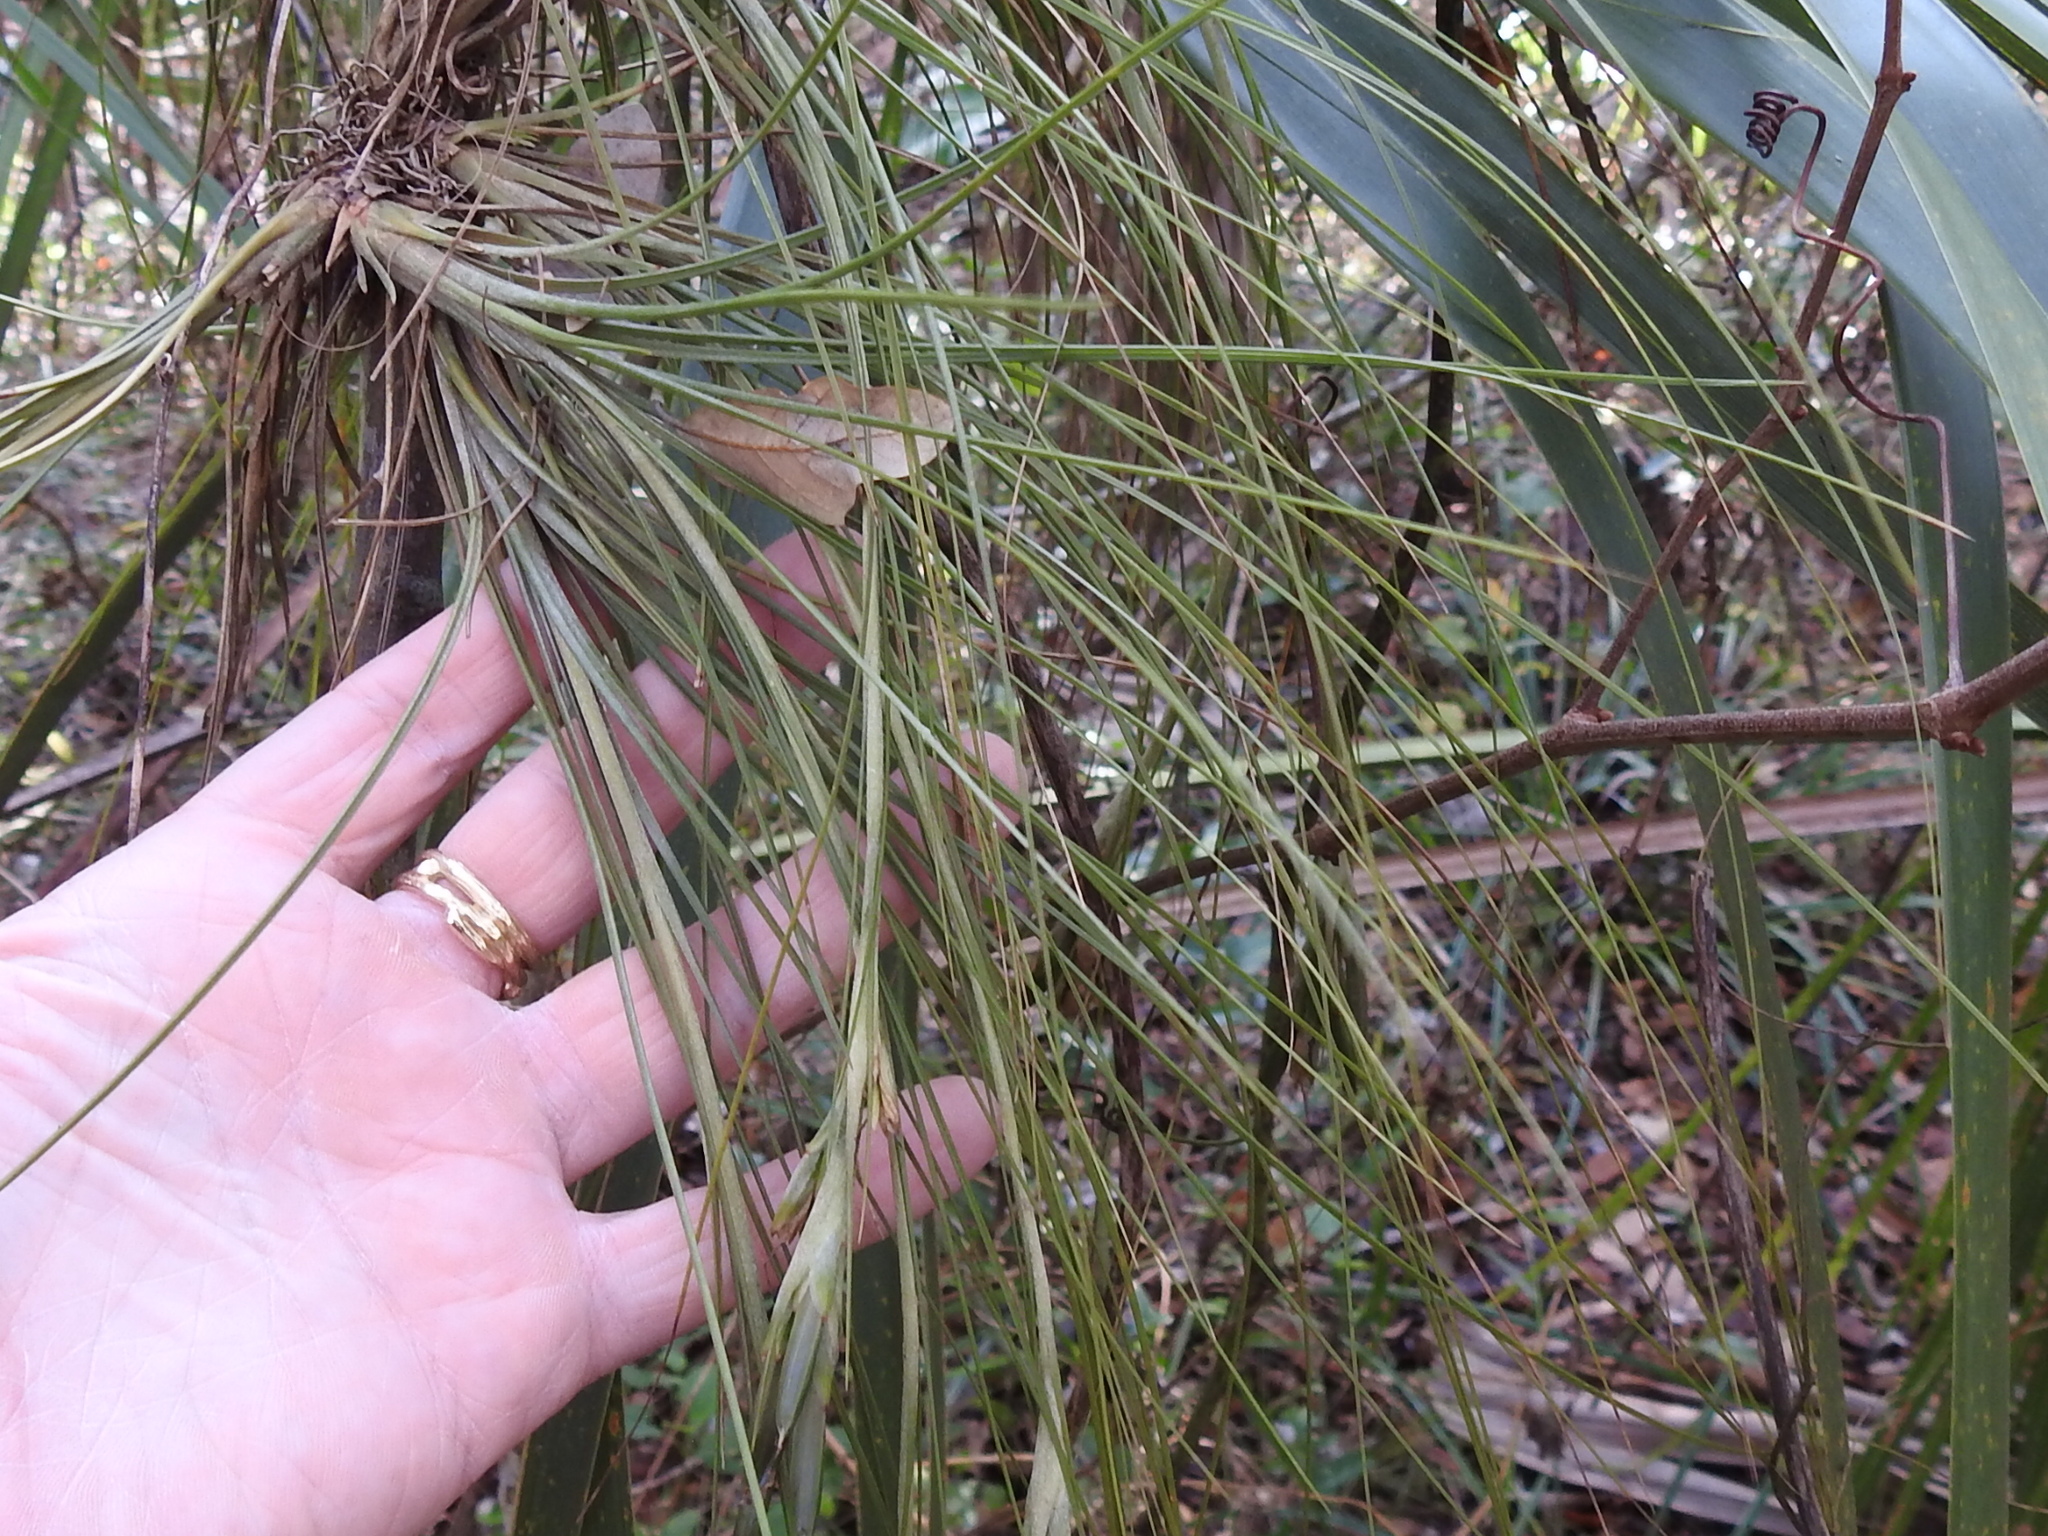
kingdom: Plantae
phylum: Tracheophyta
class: Liliopsida
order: Poales
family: Bromeliaceae
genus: Tillandsia
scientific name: Tillandsia setacea
